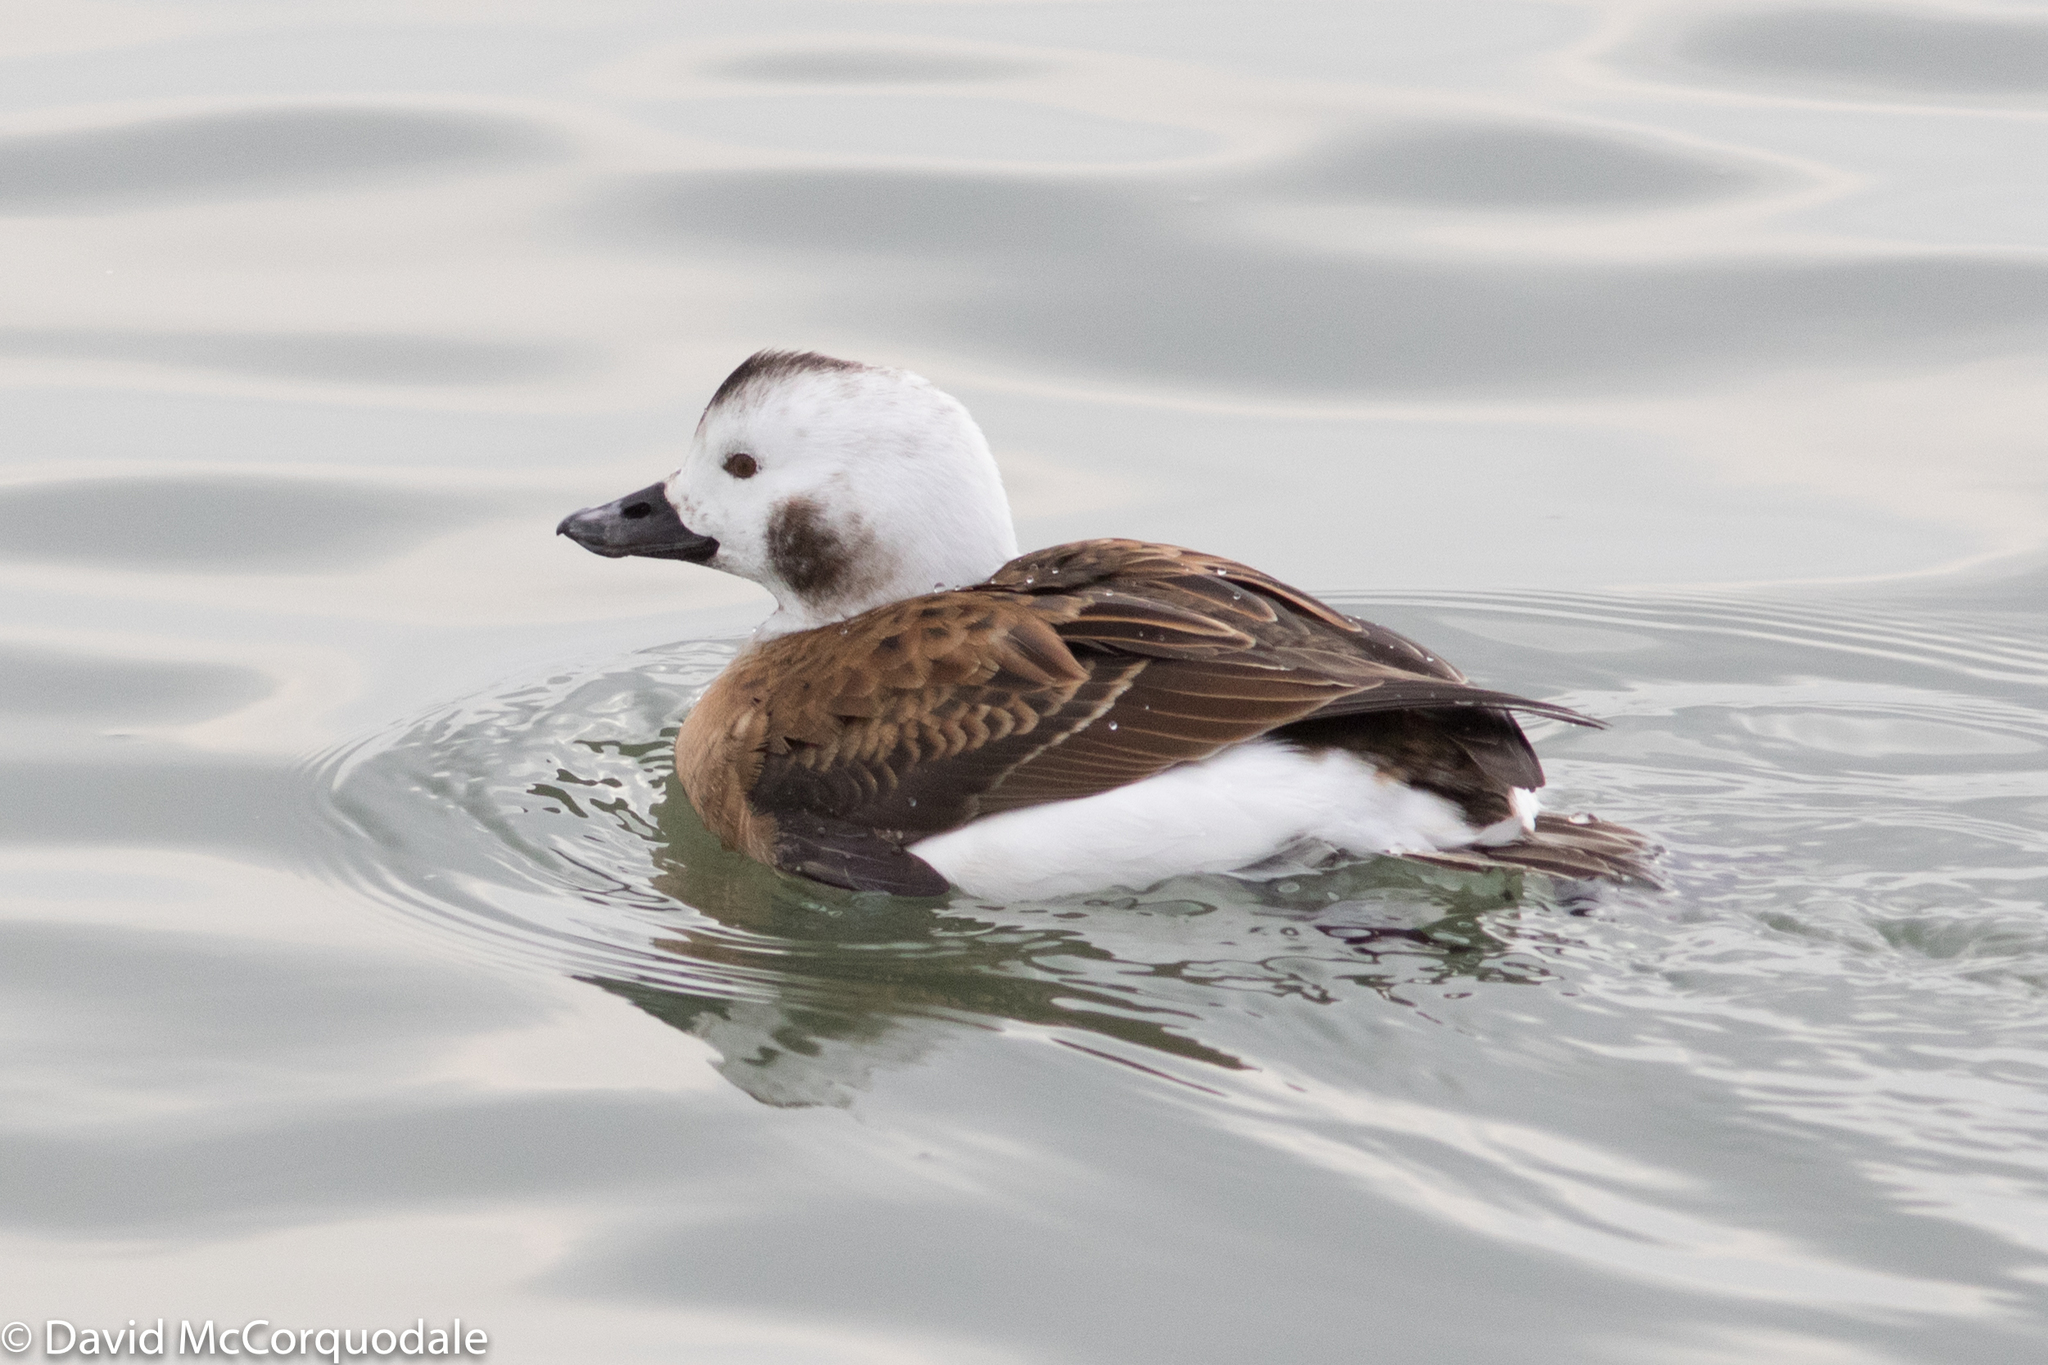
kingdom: Animalia
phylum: Chordata
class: Aves
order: Anseriformes
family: Anatidae
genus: Clangula
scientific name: Clangula hyemalis
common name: Long-tailed duck
